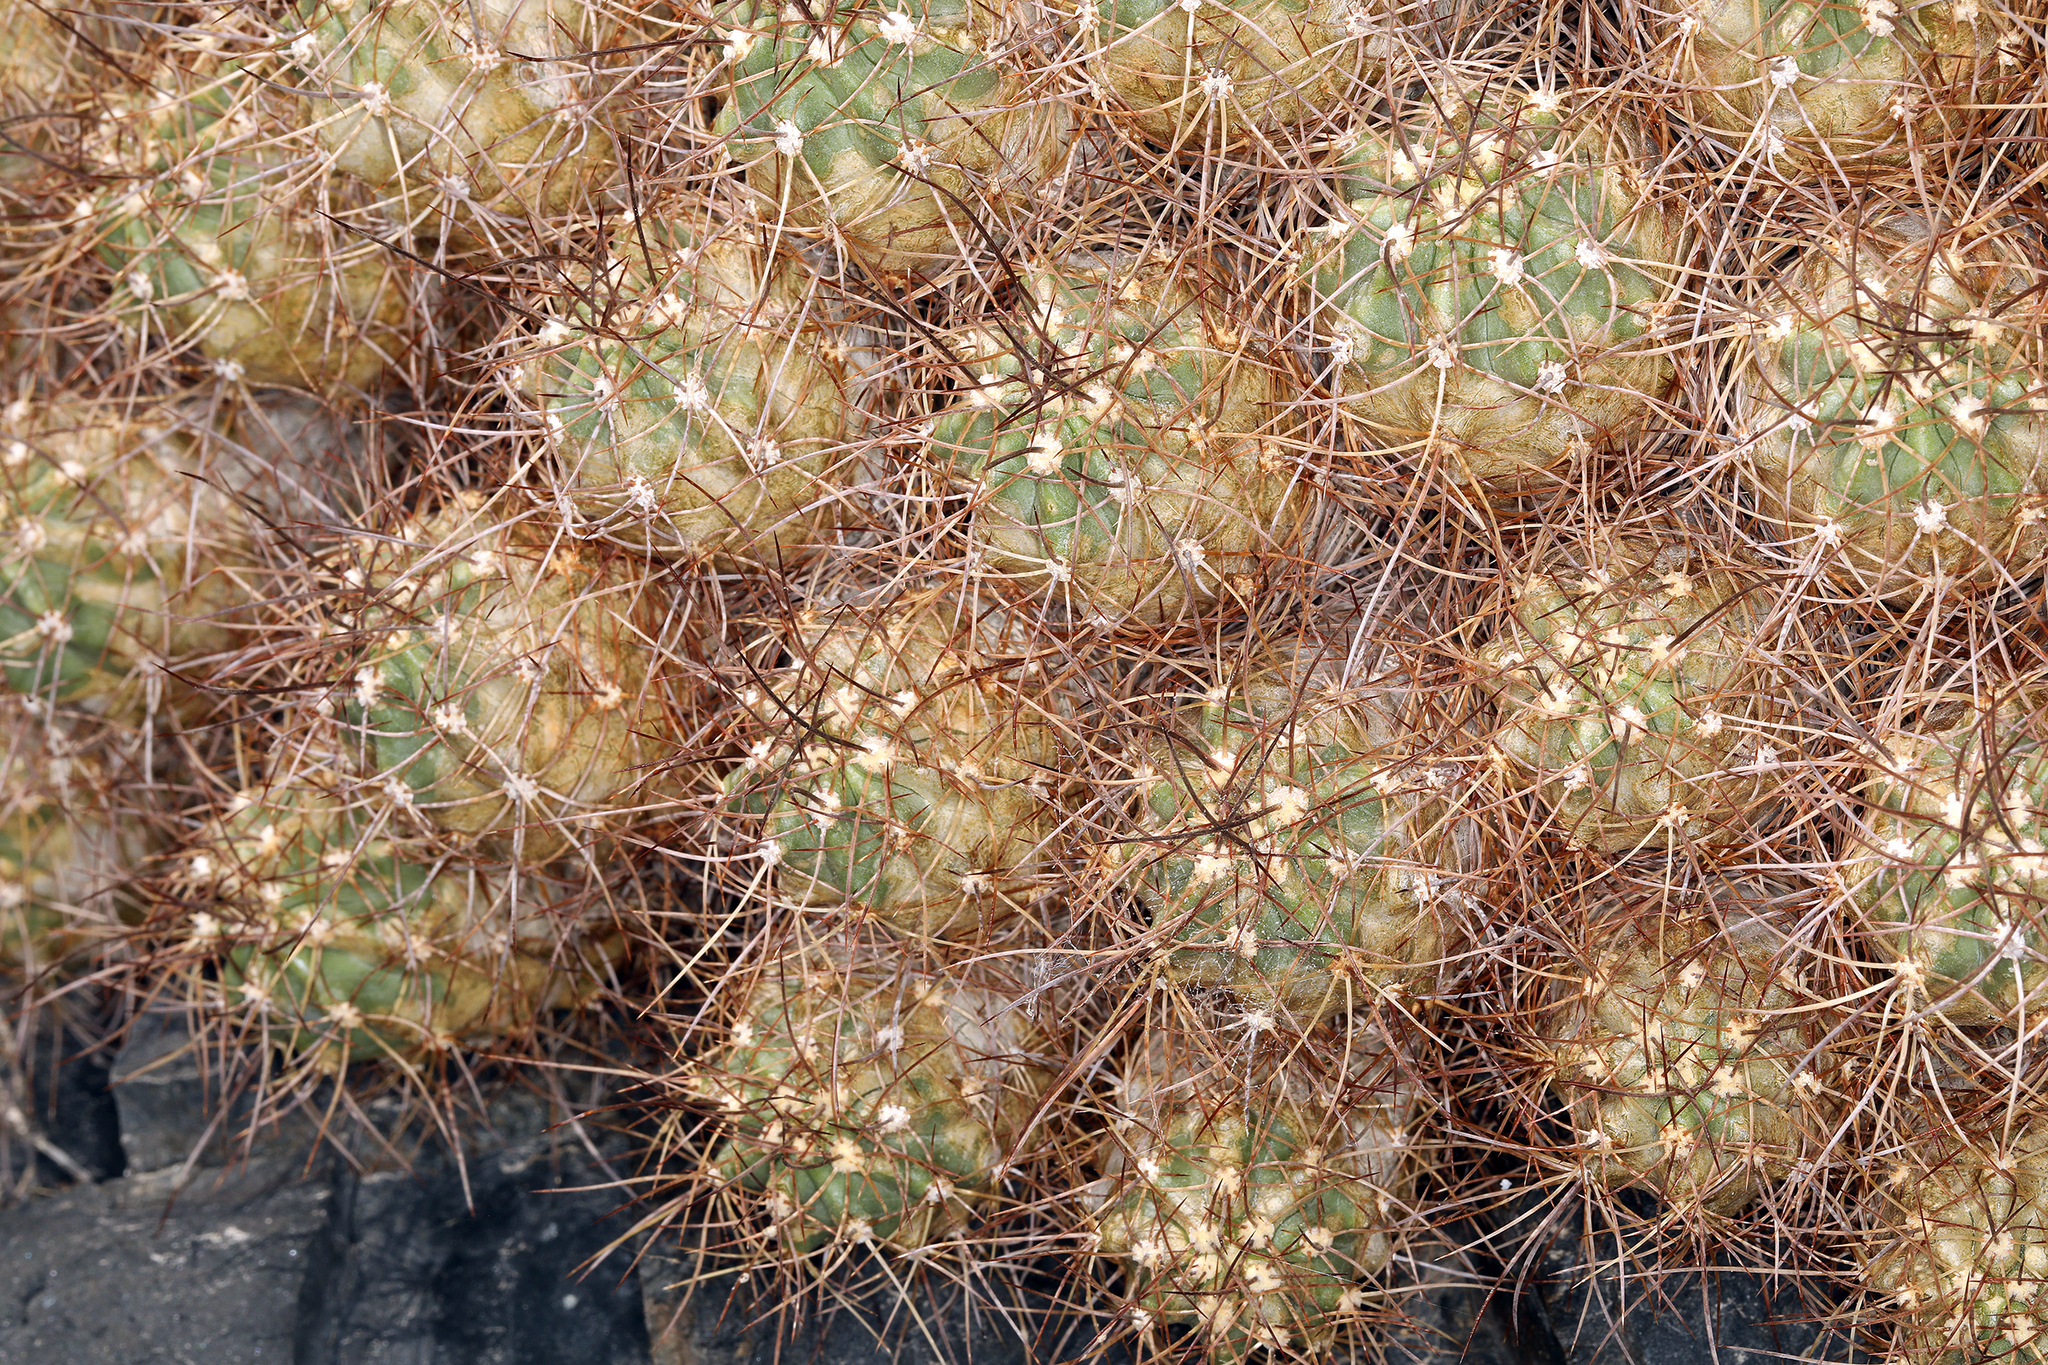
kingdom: Plantae
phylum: Tracheophyta
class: Magnoliopsida
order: Caryophyllales
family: Cactaceae
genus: Echinocereus
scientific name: Echinocereus triglochidiatus
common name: Claretcup hedgehog
